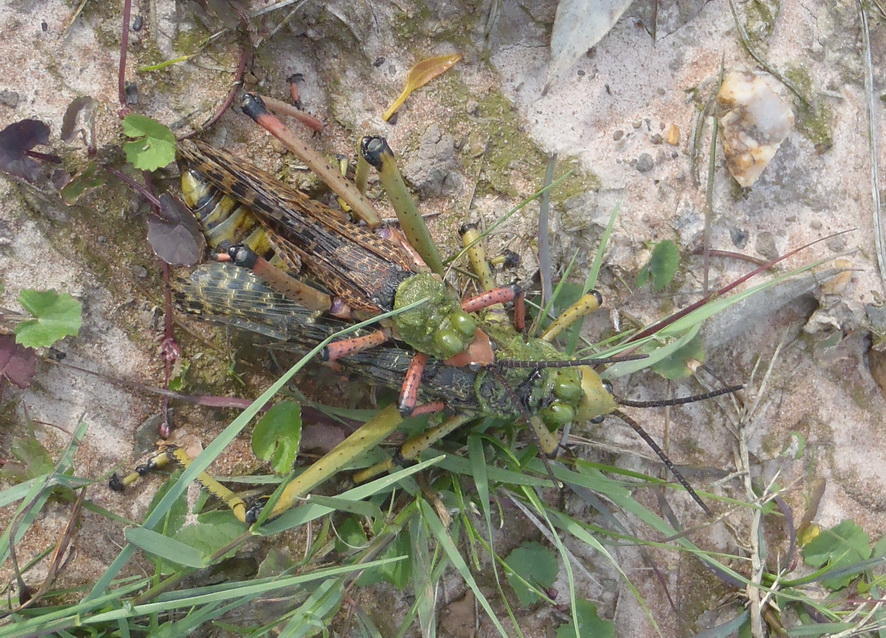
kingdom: Animalia
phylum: Arthropoda
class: Insecta
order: Orthoptera
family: Pyrgomorphidae
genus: Phymateus
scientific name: Phymateus leprosus
